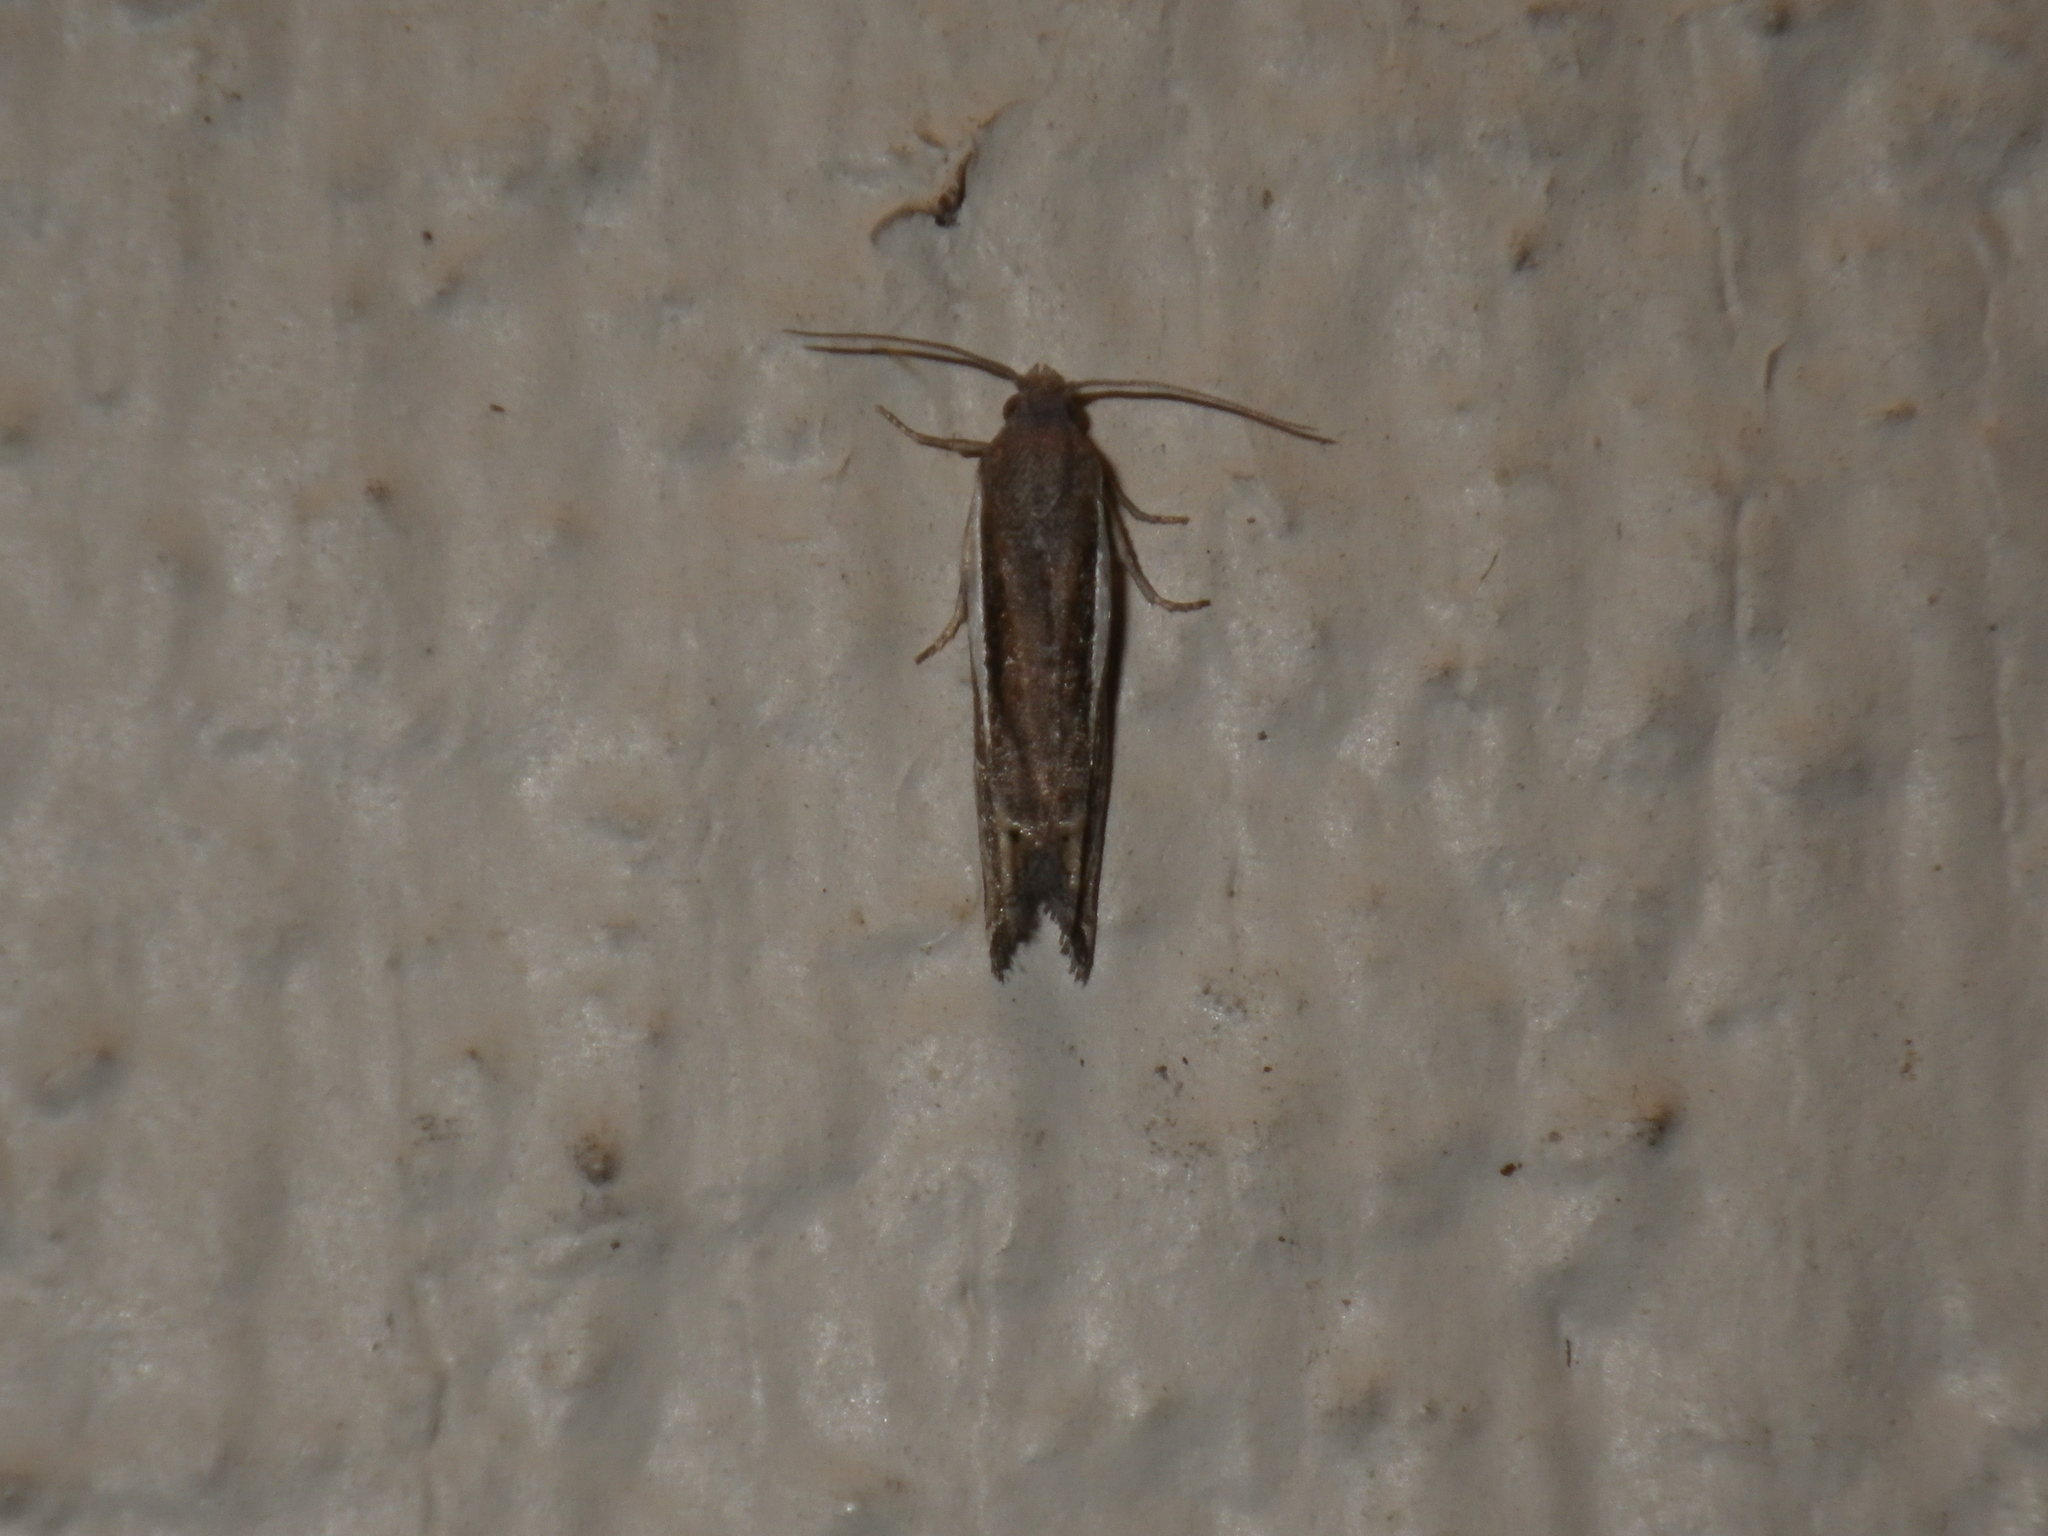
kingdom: Animalia
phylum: Arthropoda
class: Insecta
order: Lepidoptera
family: Tortricidae
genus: Eucosma
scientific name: Eucosma spiculana
